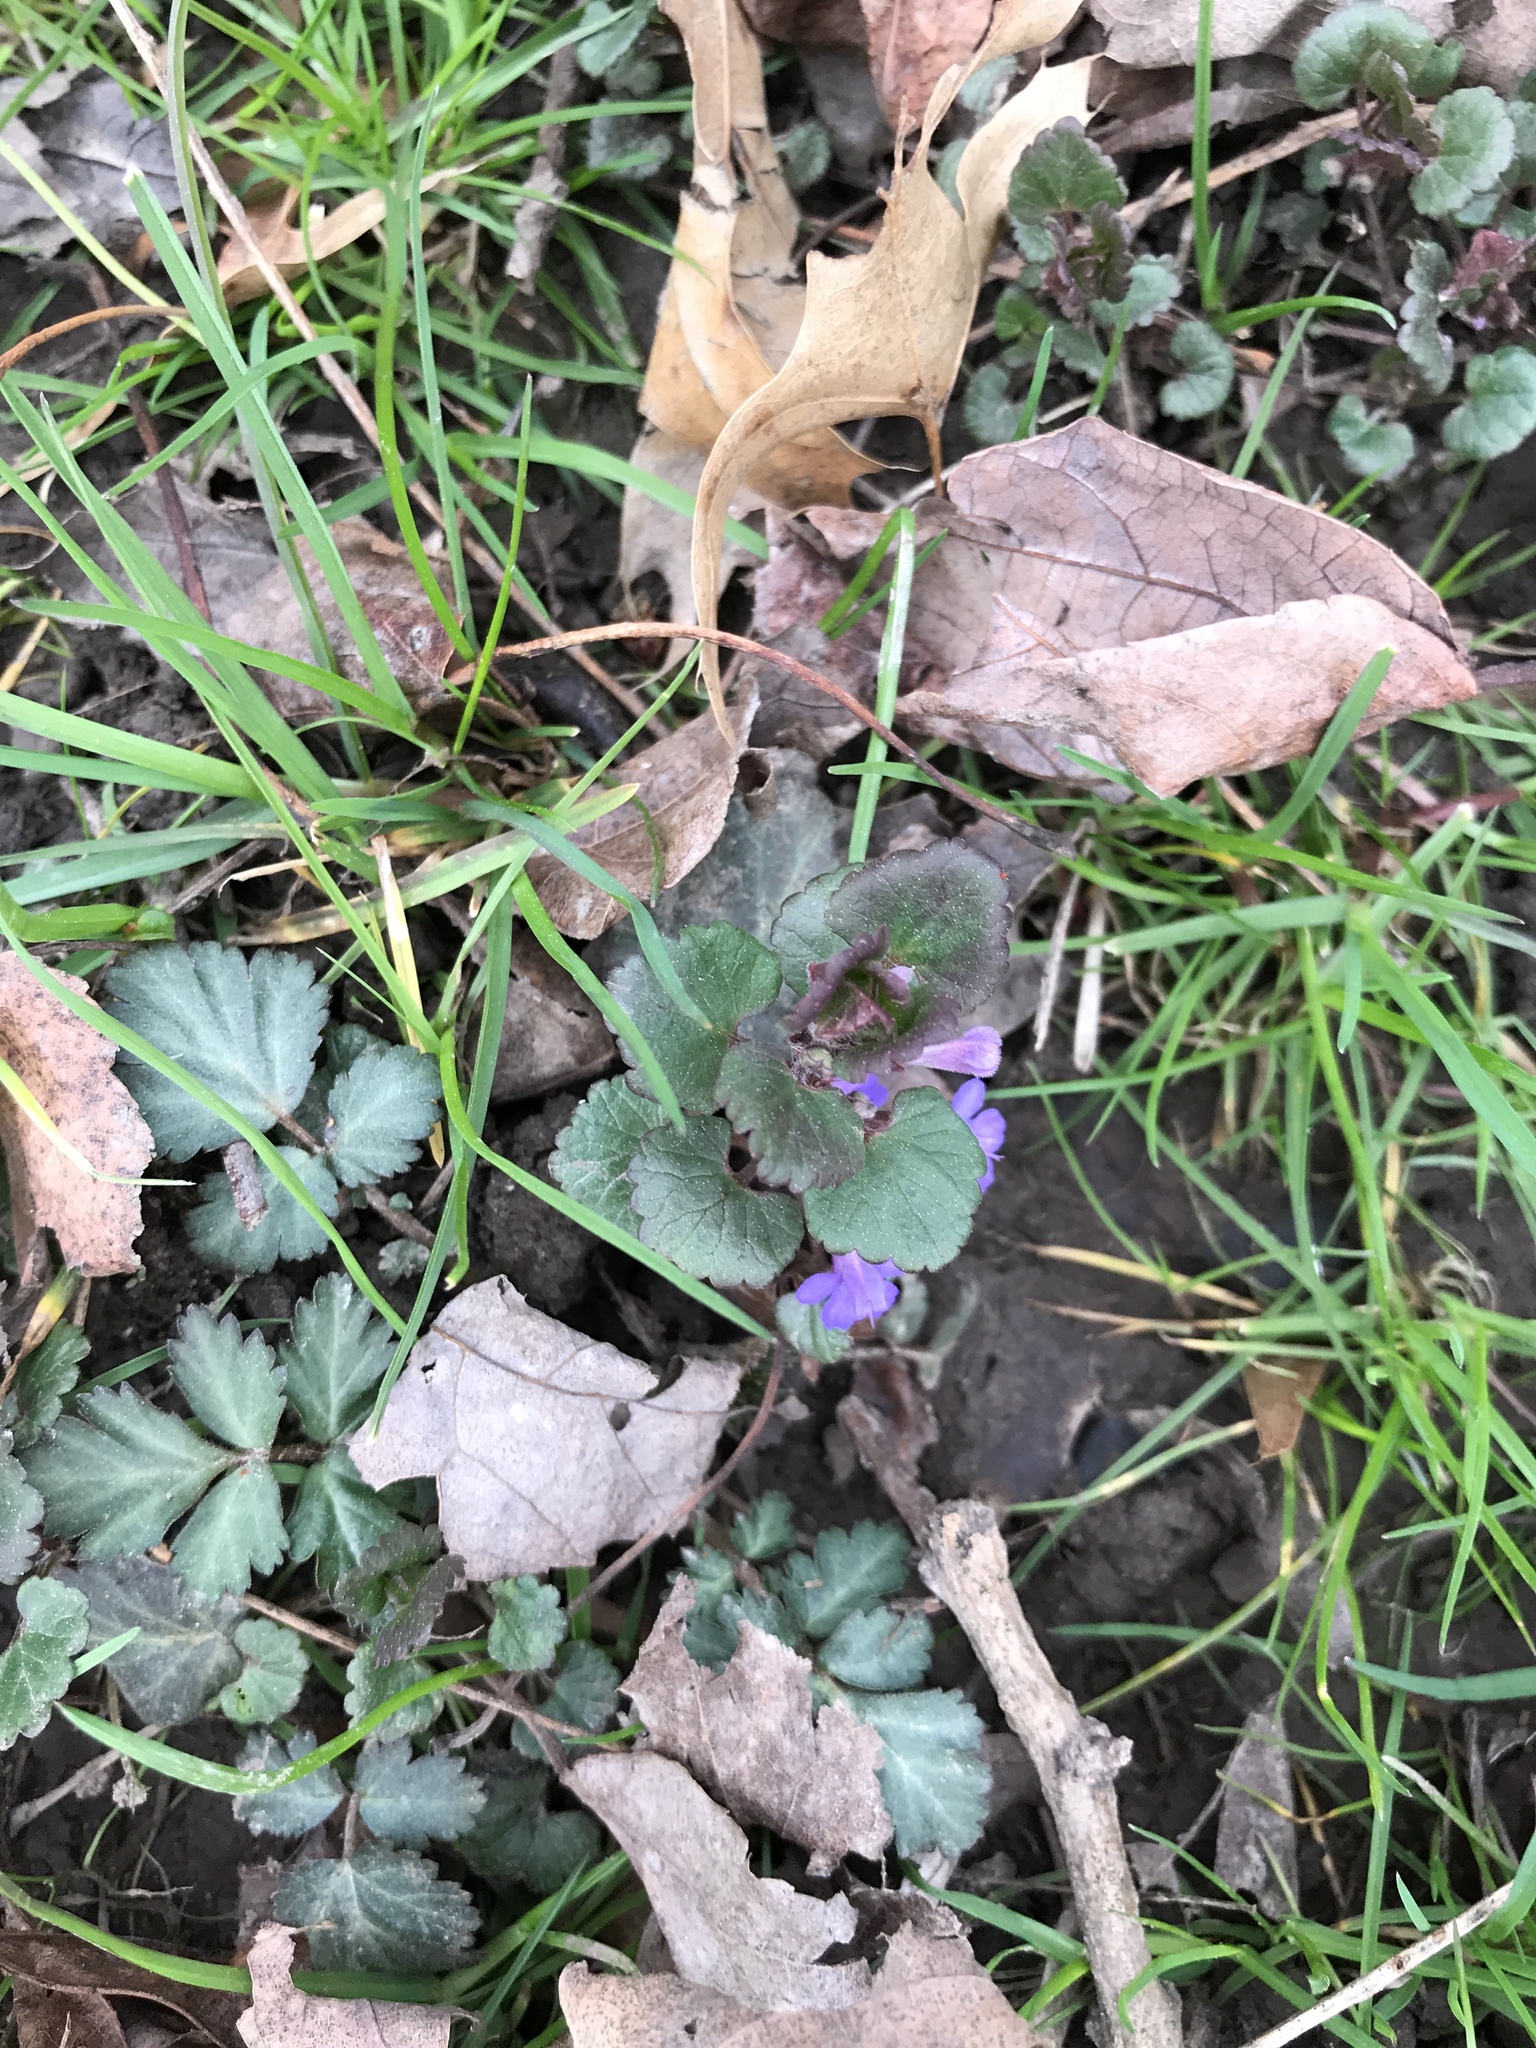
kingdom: Plantae
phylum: Tracheophyta
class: Magnoliopsida
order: Lamiales
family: Lamiaceae
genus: Glechoma
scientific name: Glechoma hederacea
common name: Ground ivy
